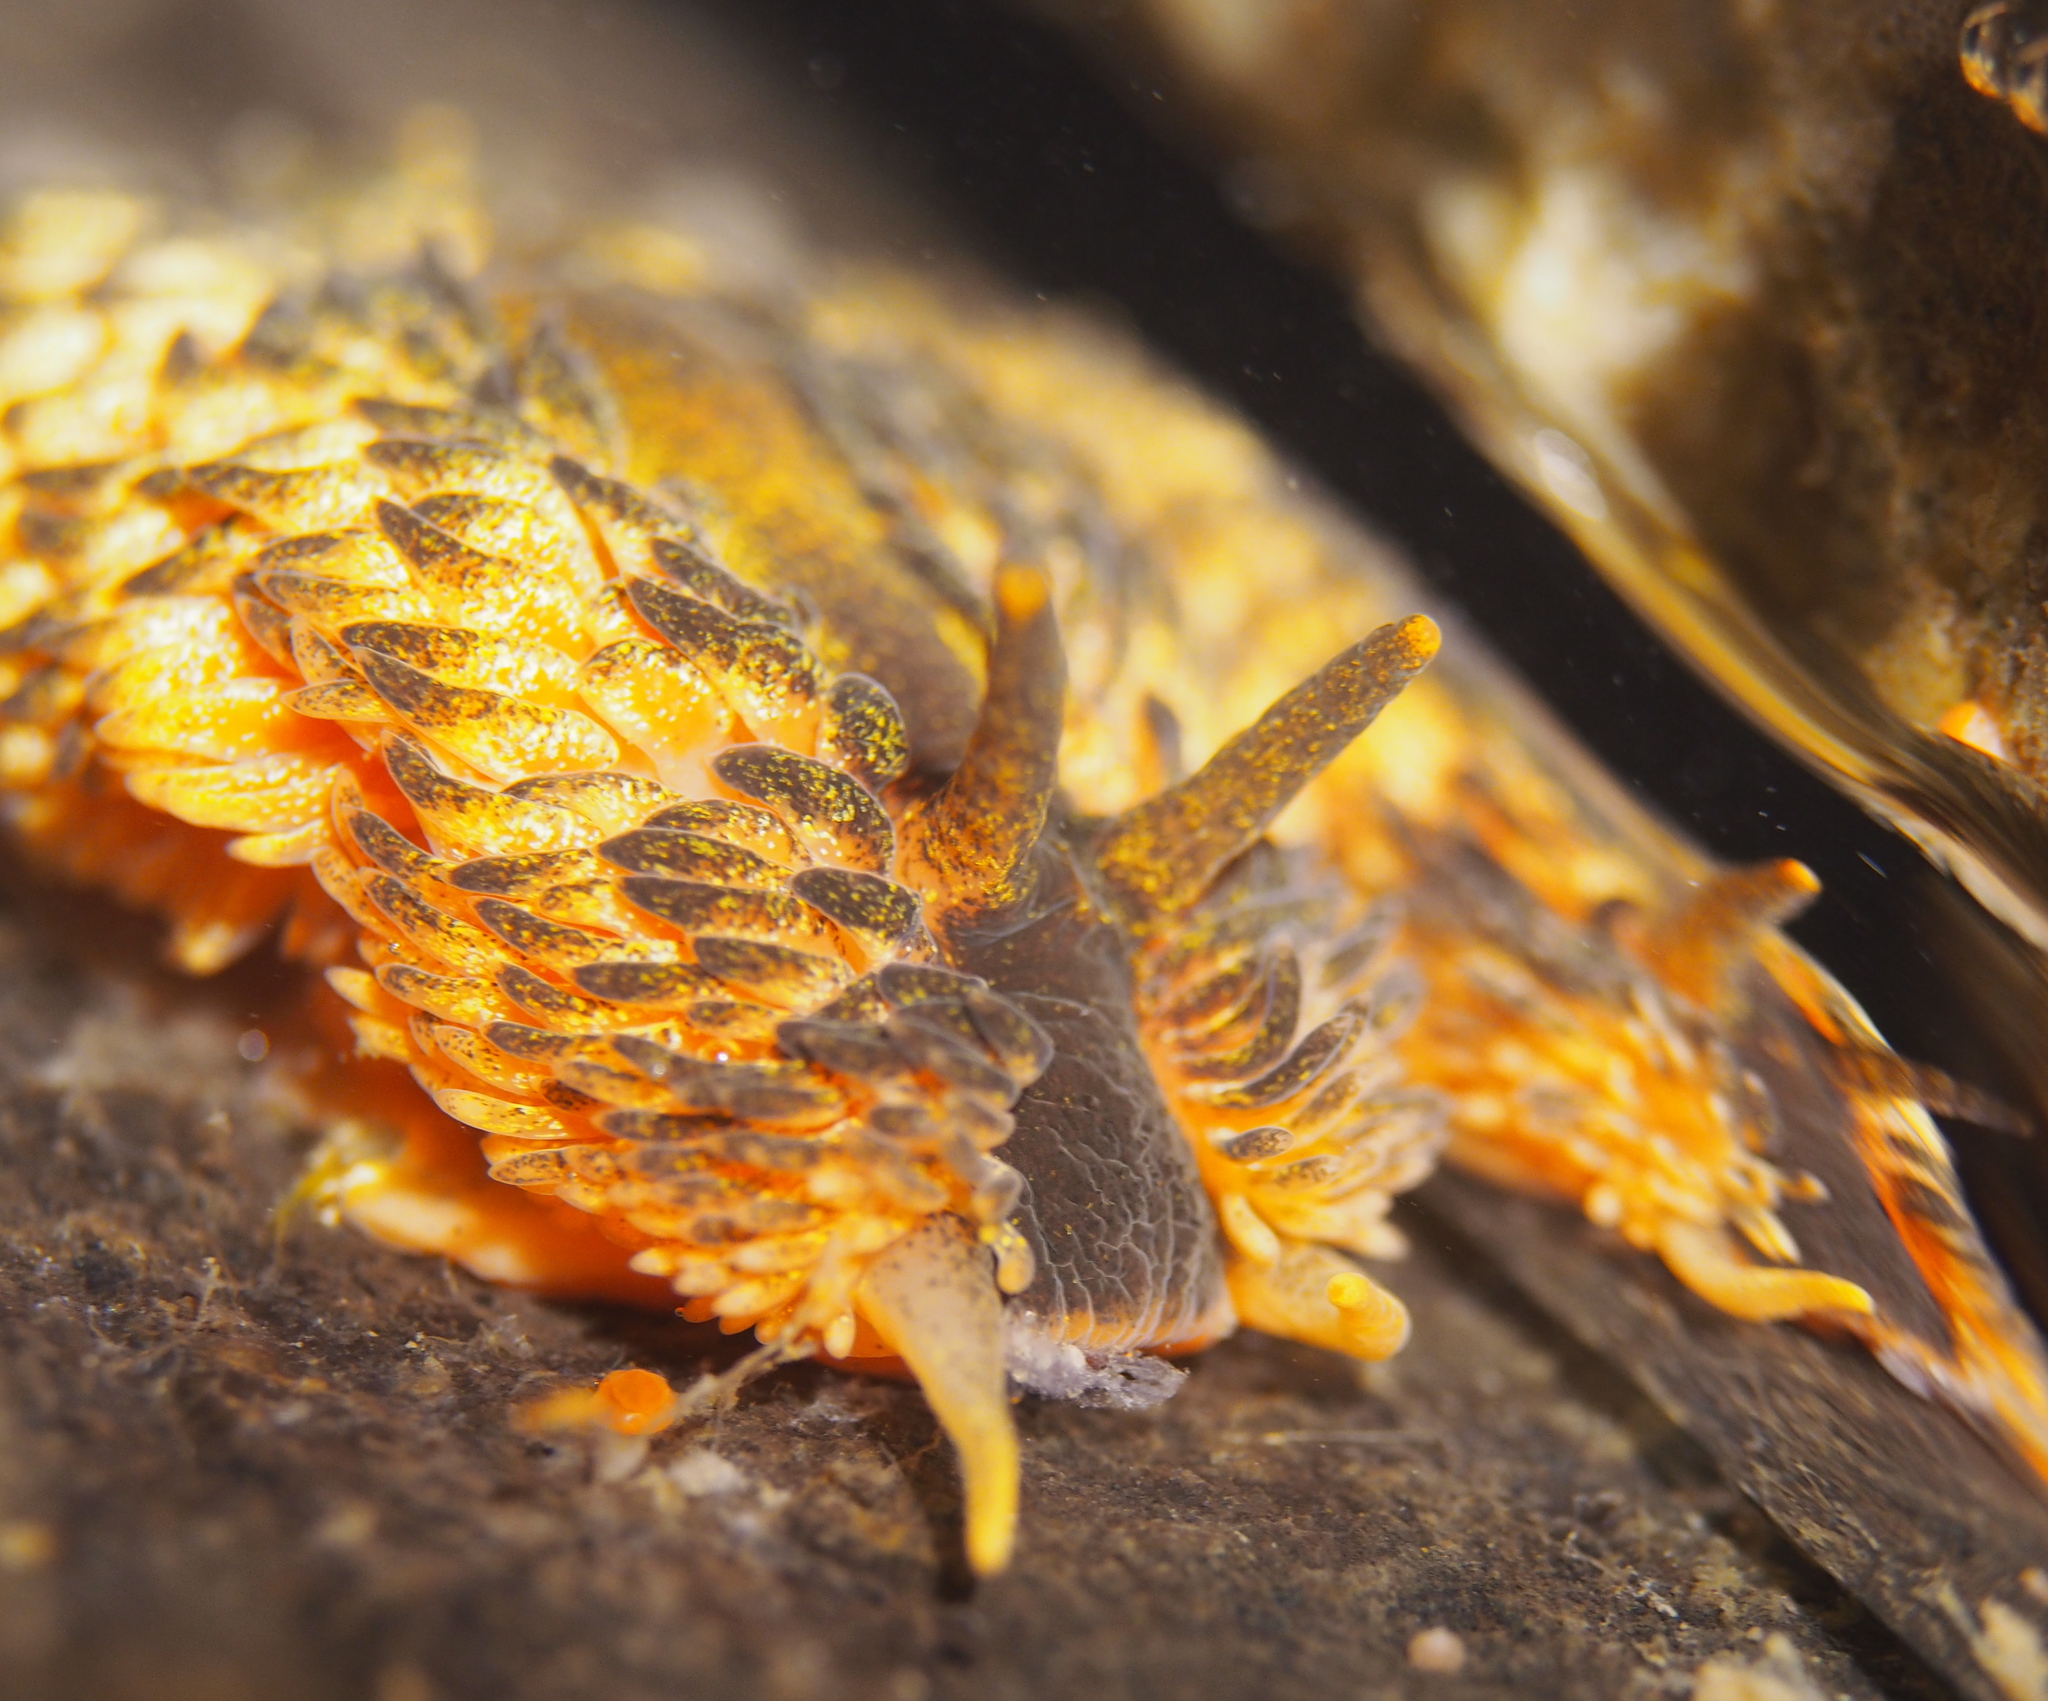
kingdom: Animalia
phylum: Mollusca
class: Gastropoda
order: Nudibranchia
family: Aeolidiidae
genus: Aeolidia
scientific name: Aeolidia papillosa
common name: Common grey sea slug
